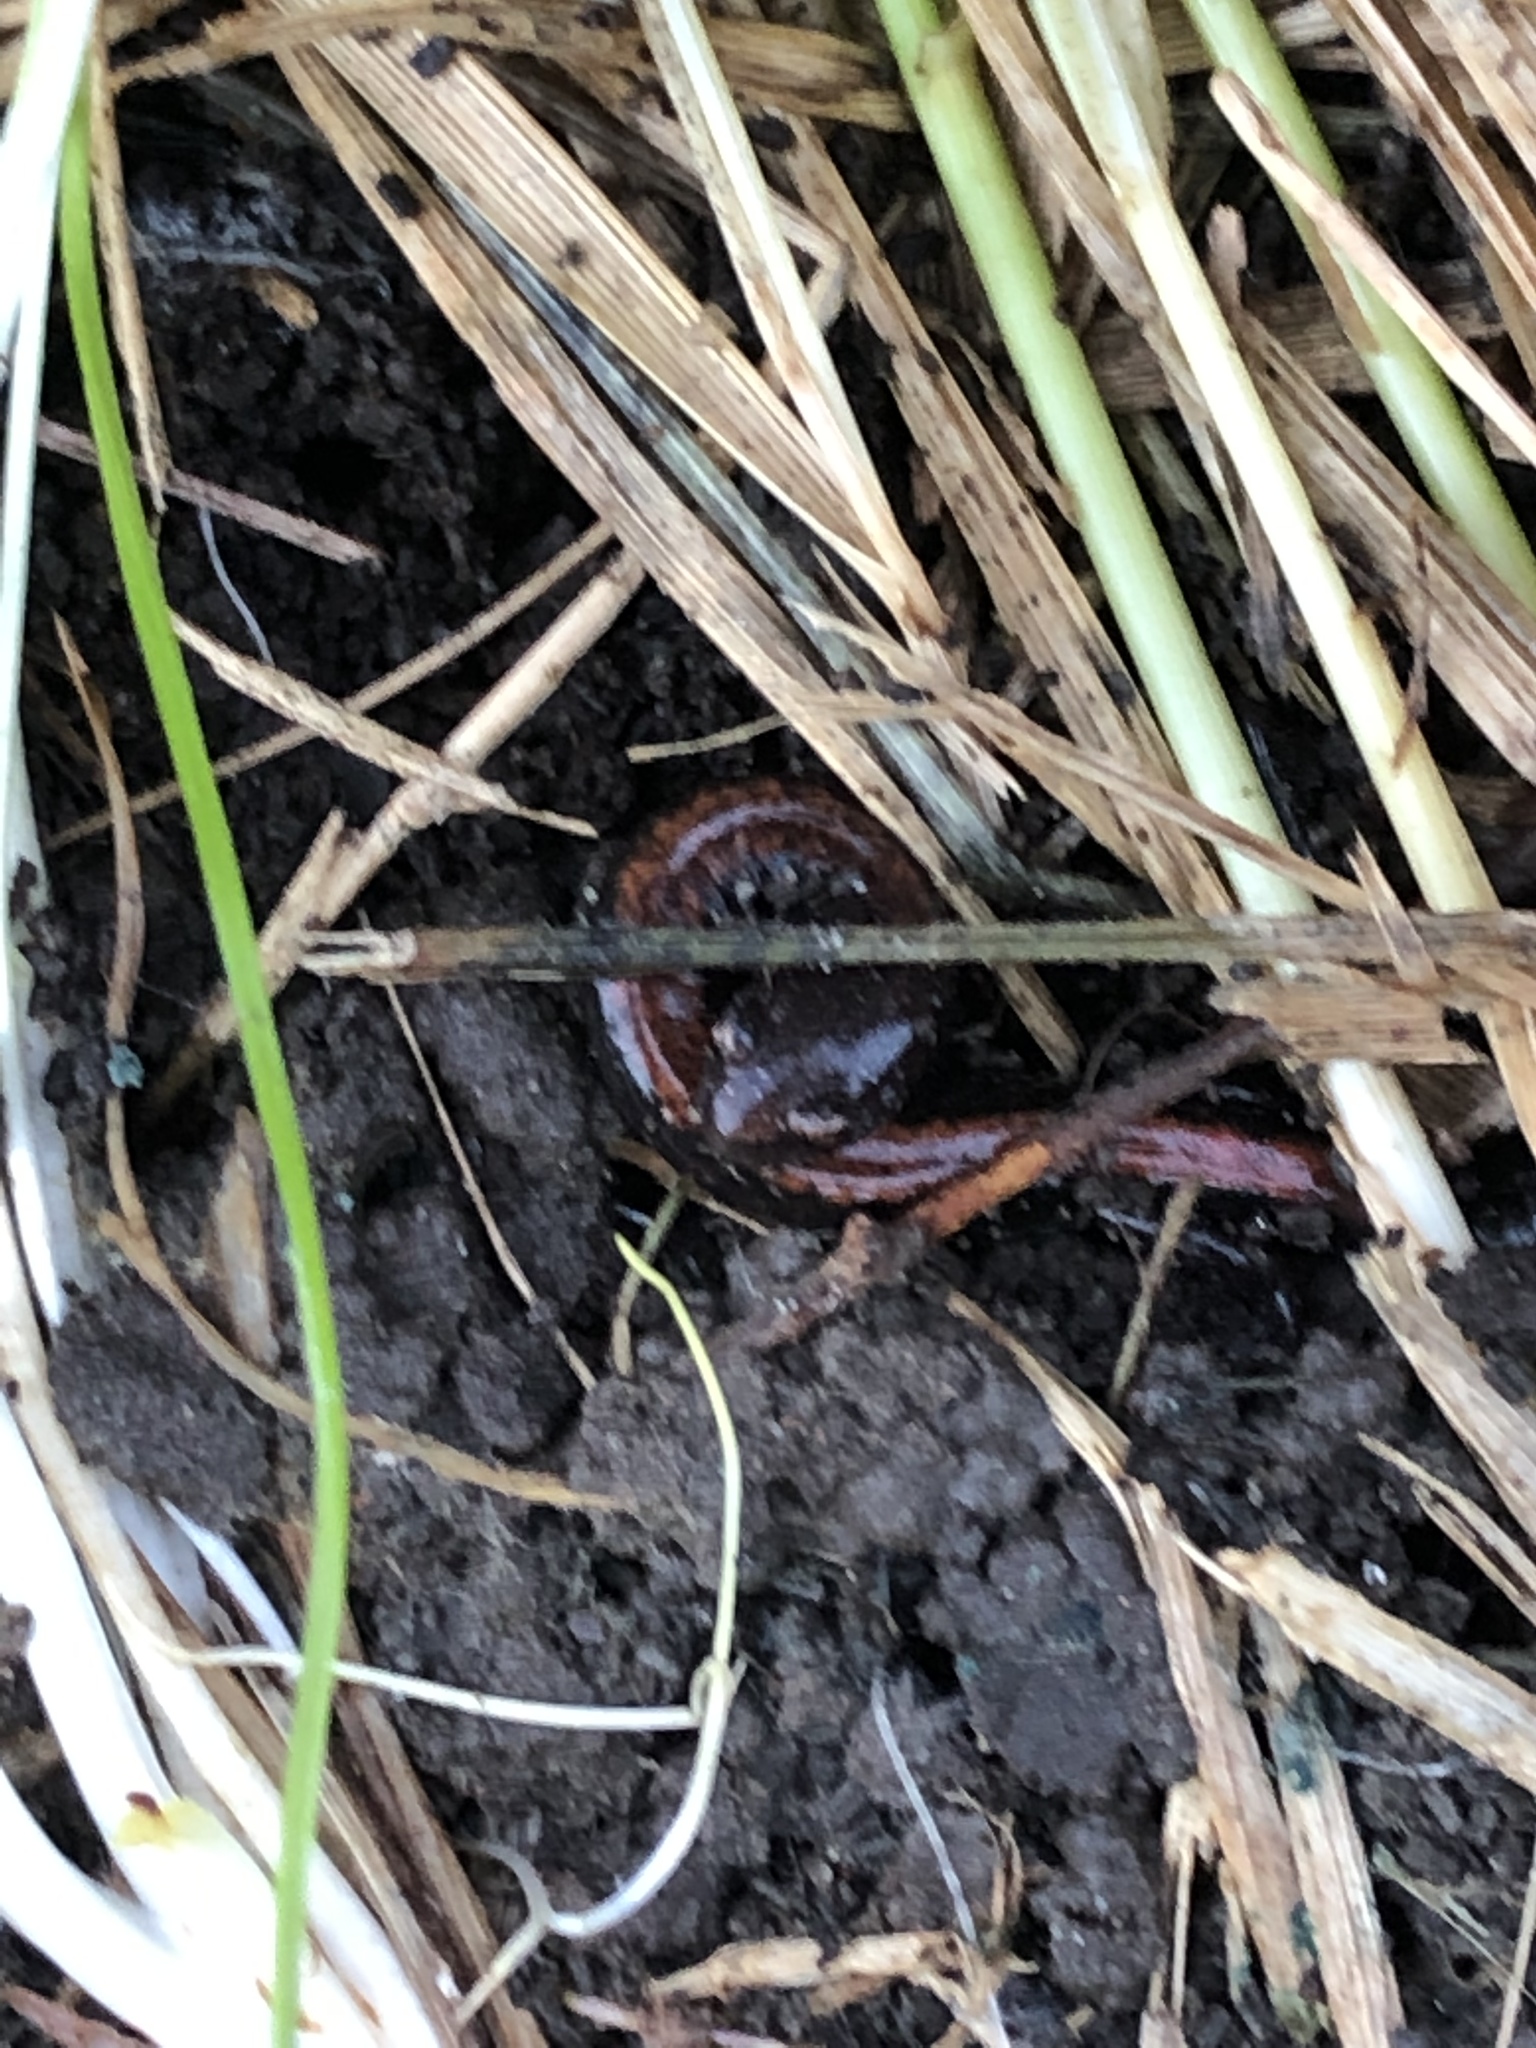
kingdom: Animalia
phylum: Chordata
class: Amphibia
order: Caudata
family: Plethodontidae
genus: Plethodon
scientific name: Plethodon cinereus
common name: Redback salamander
